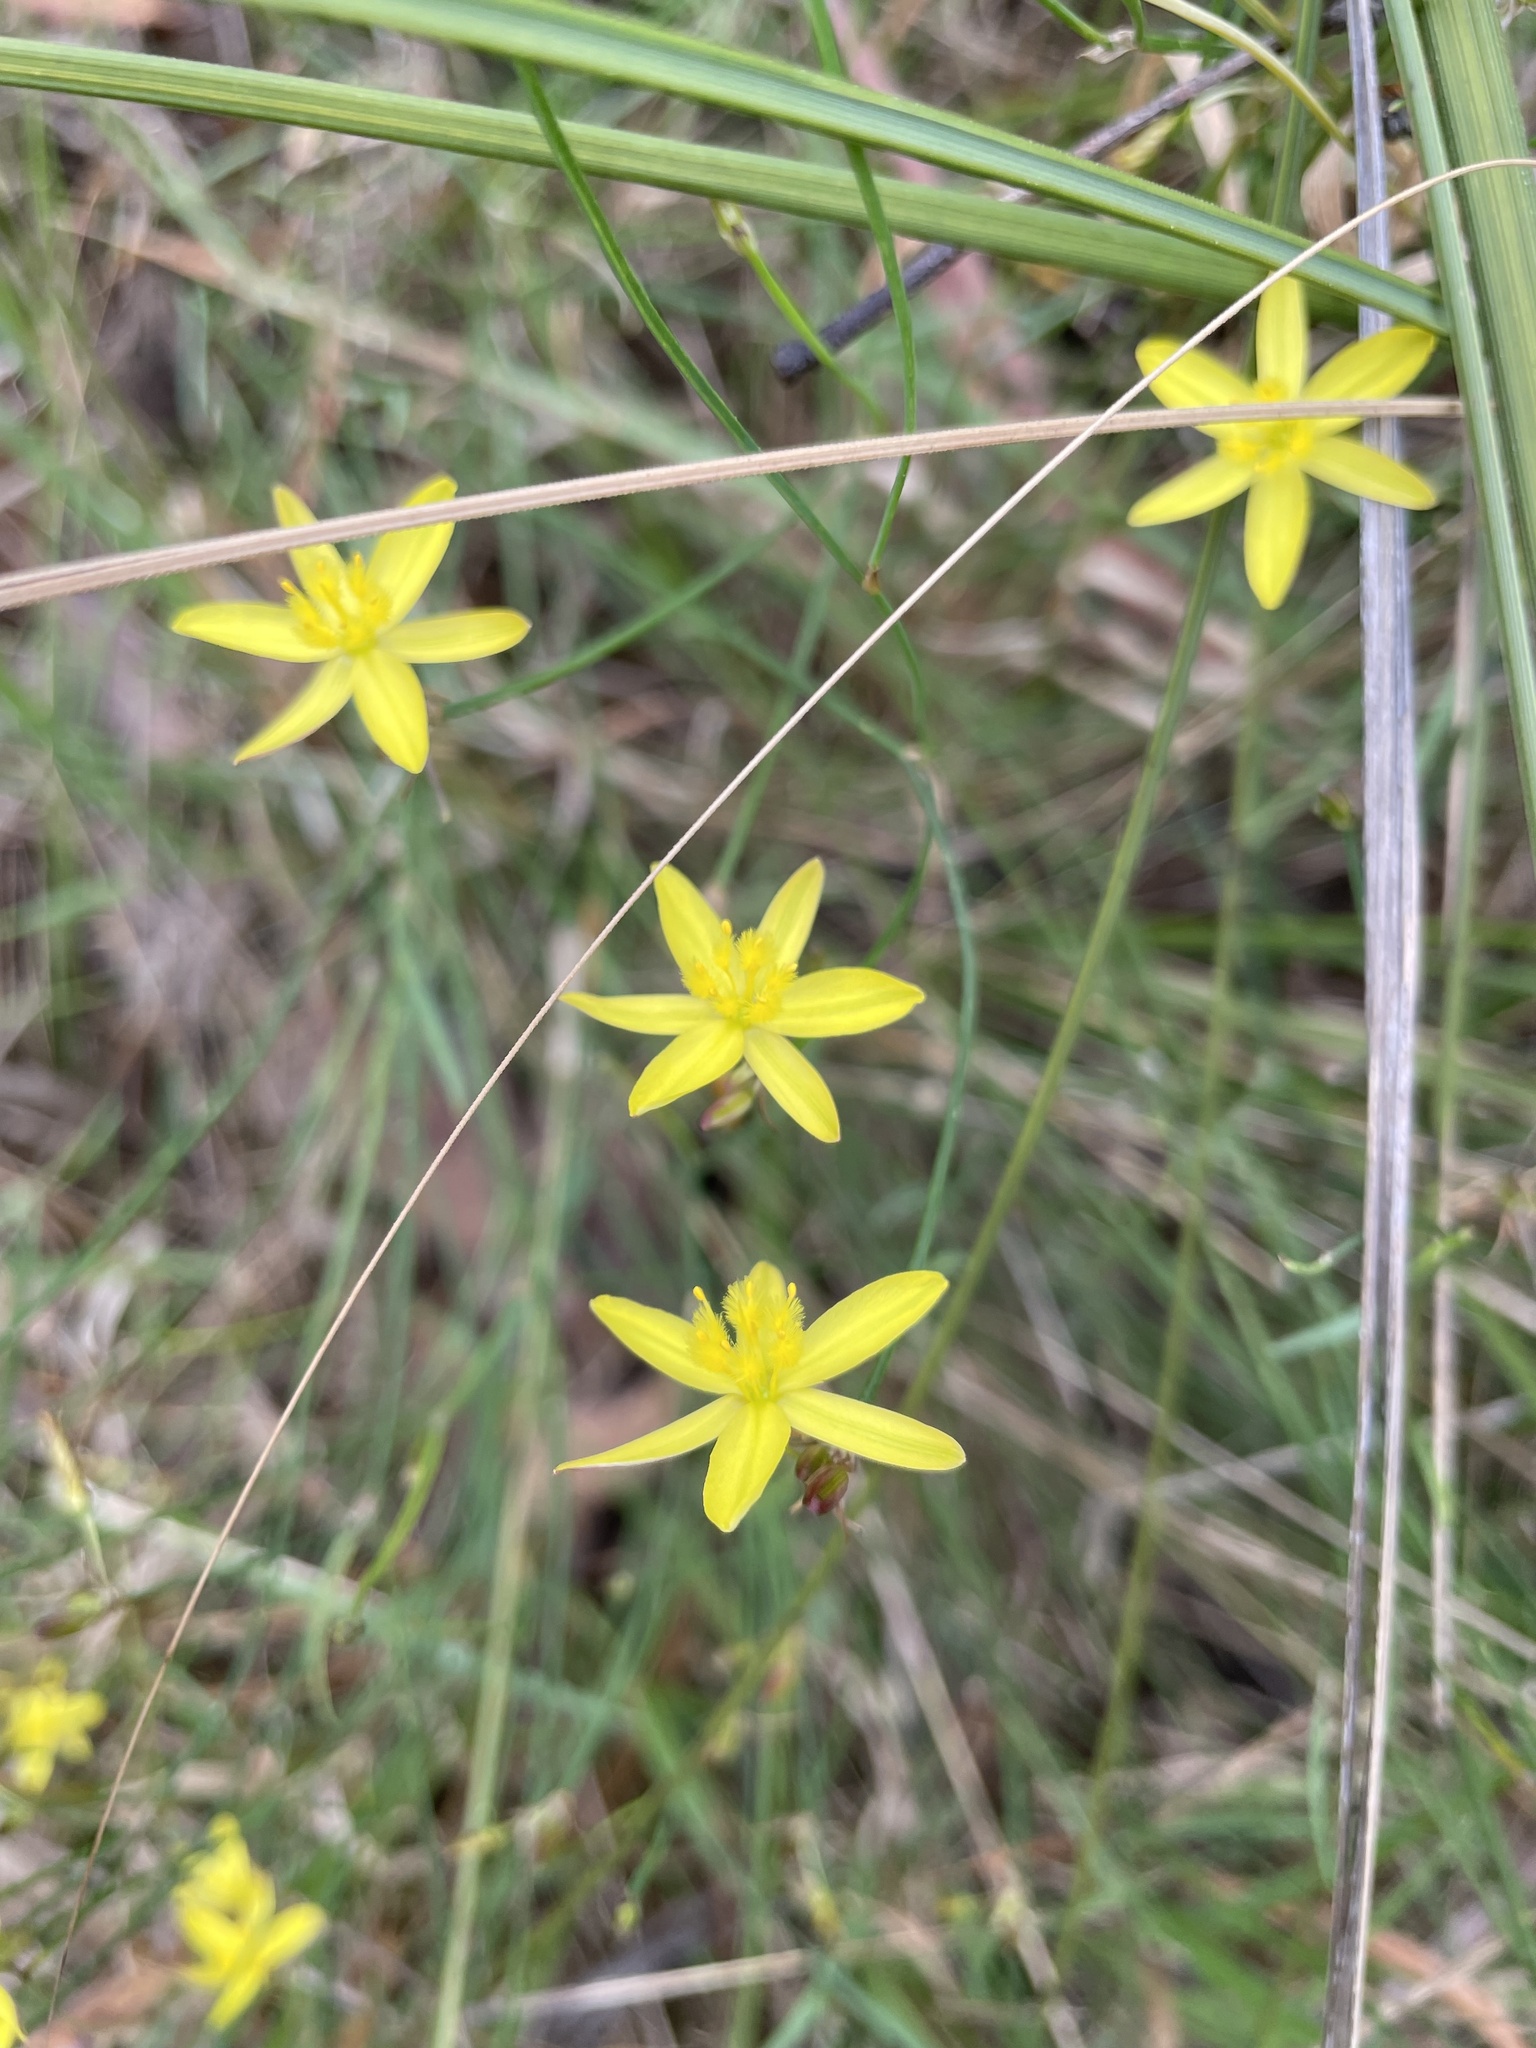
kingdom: Plantae
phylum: Tracheophyta
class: Liliopsida
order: Asparagales
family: Asphodelaceae
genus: Tricoryne
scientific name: Tricoryne elatior
